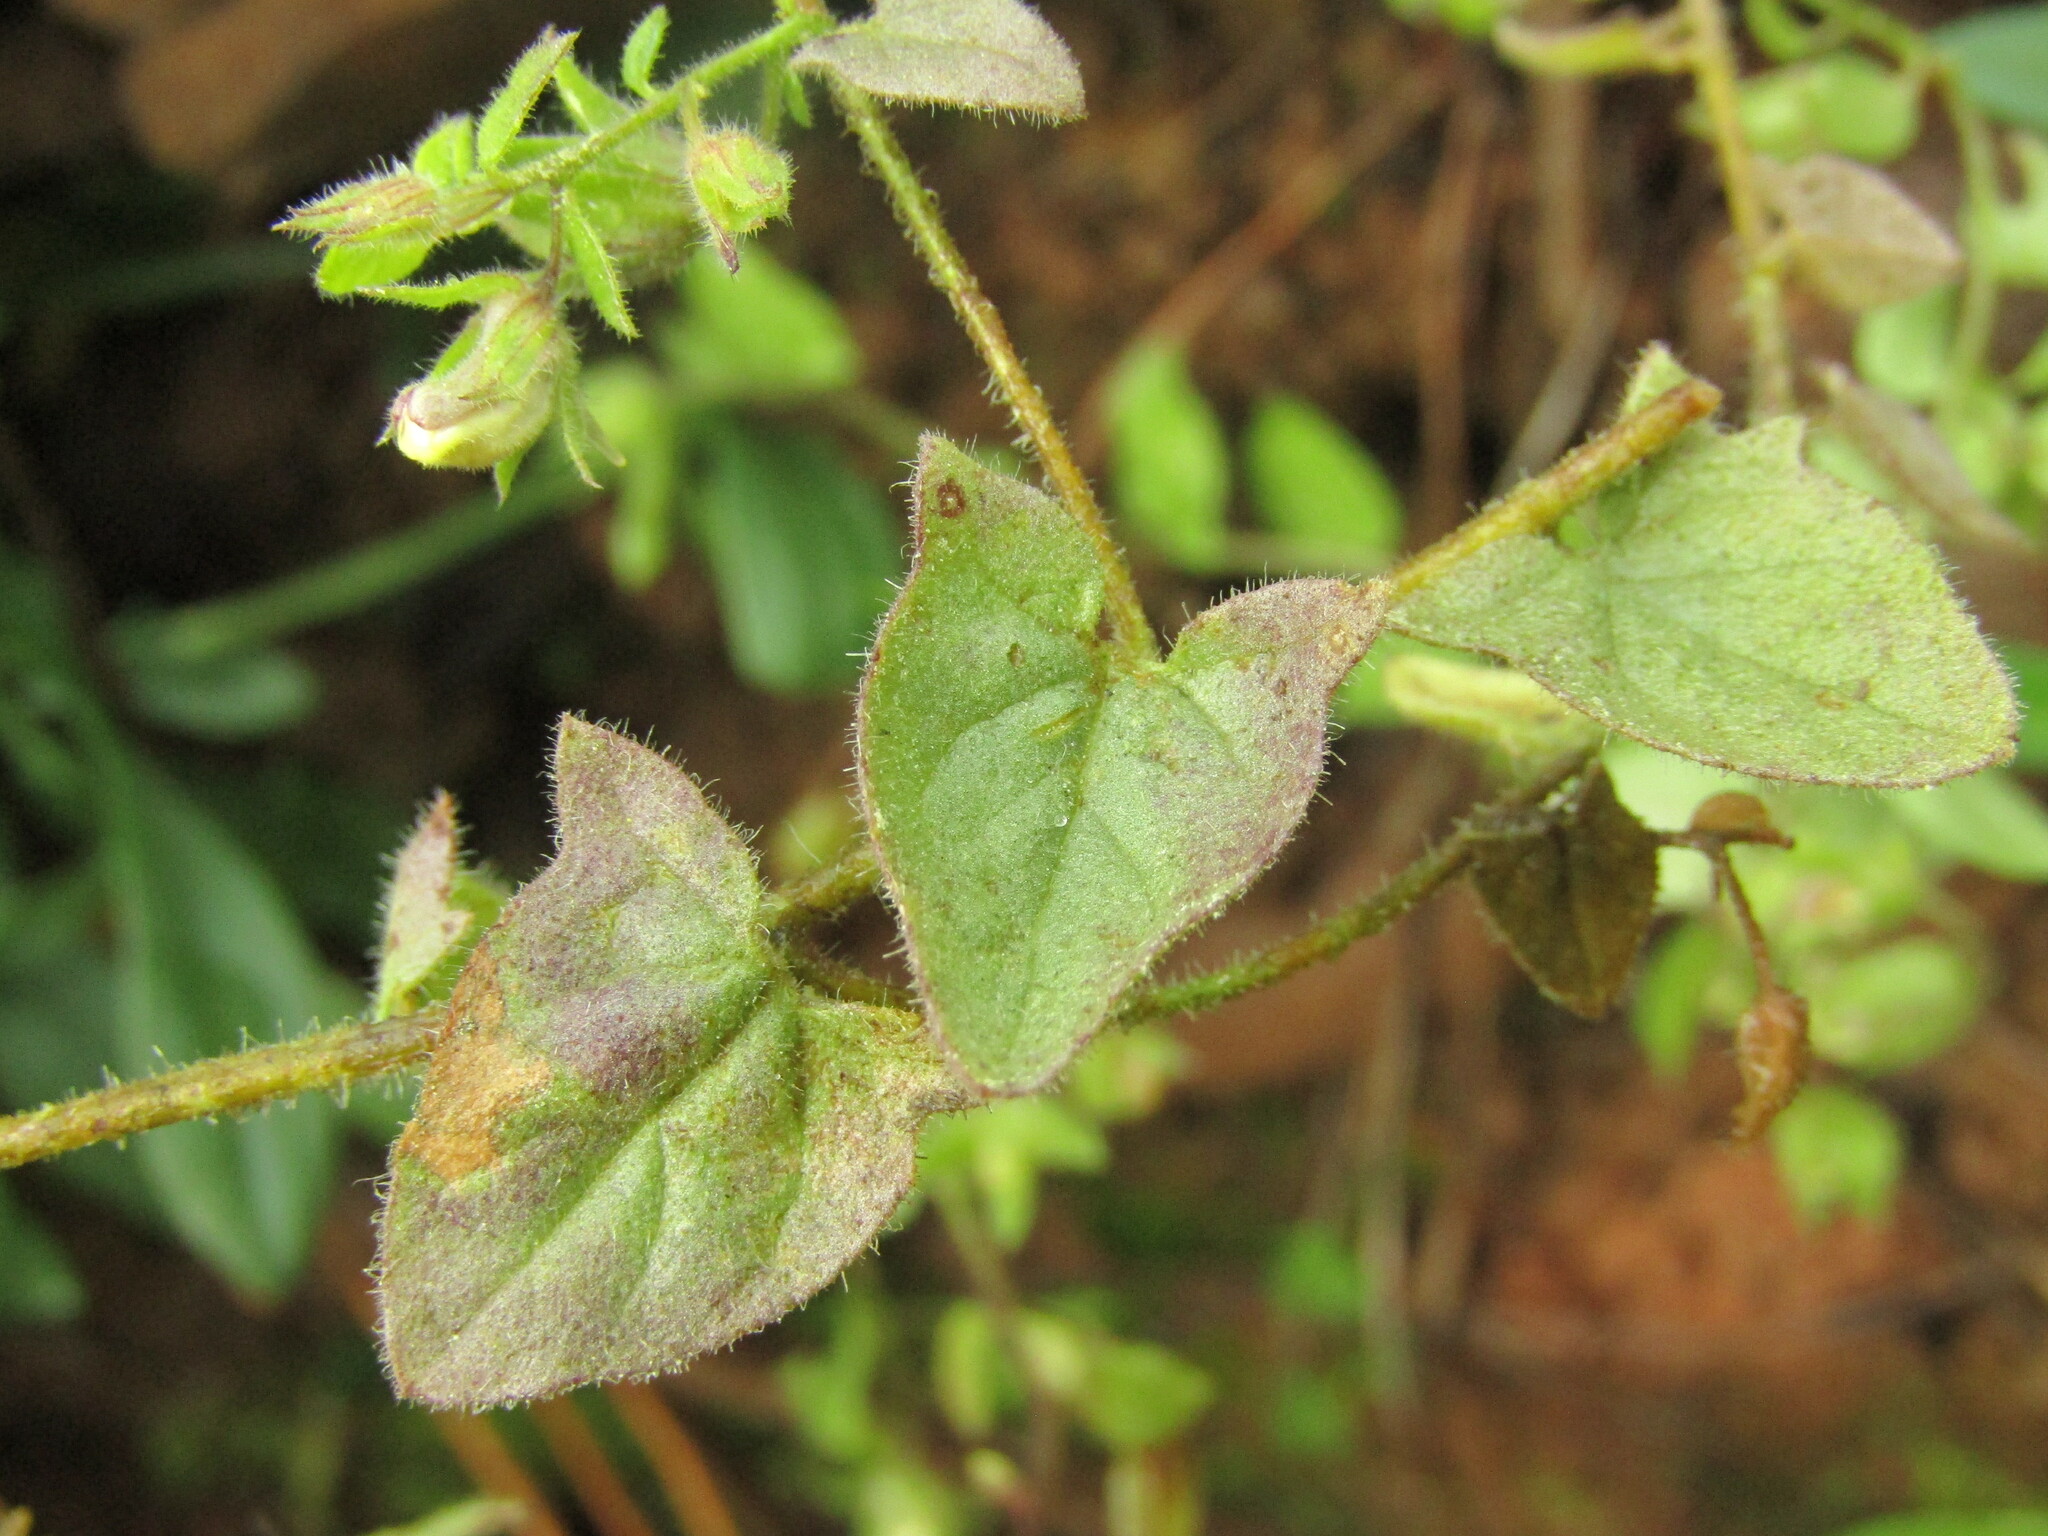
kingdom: Plantae
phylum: Tracheophyta
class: Magnoliopsida
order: Lamiales
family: Plantaginaceae
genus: Kickxia
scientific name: Kickxia elatine
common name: Sharp-leaved fluellen
